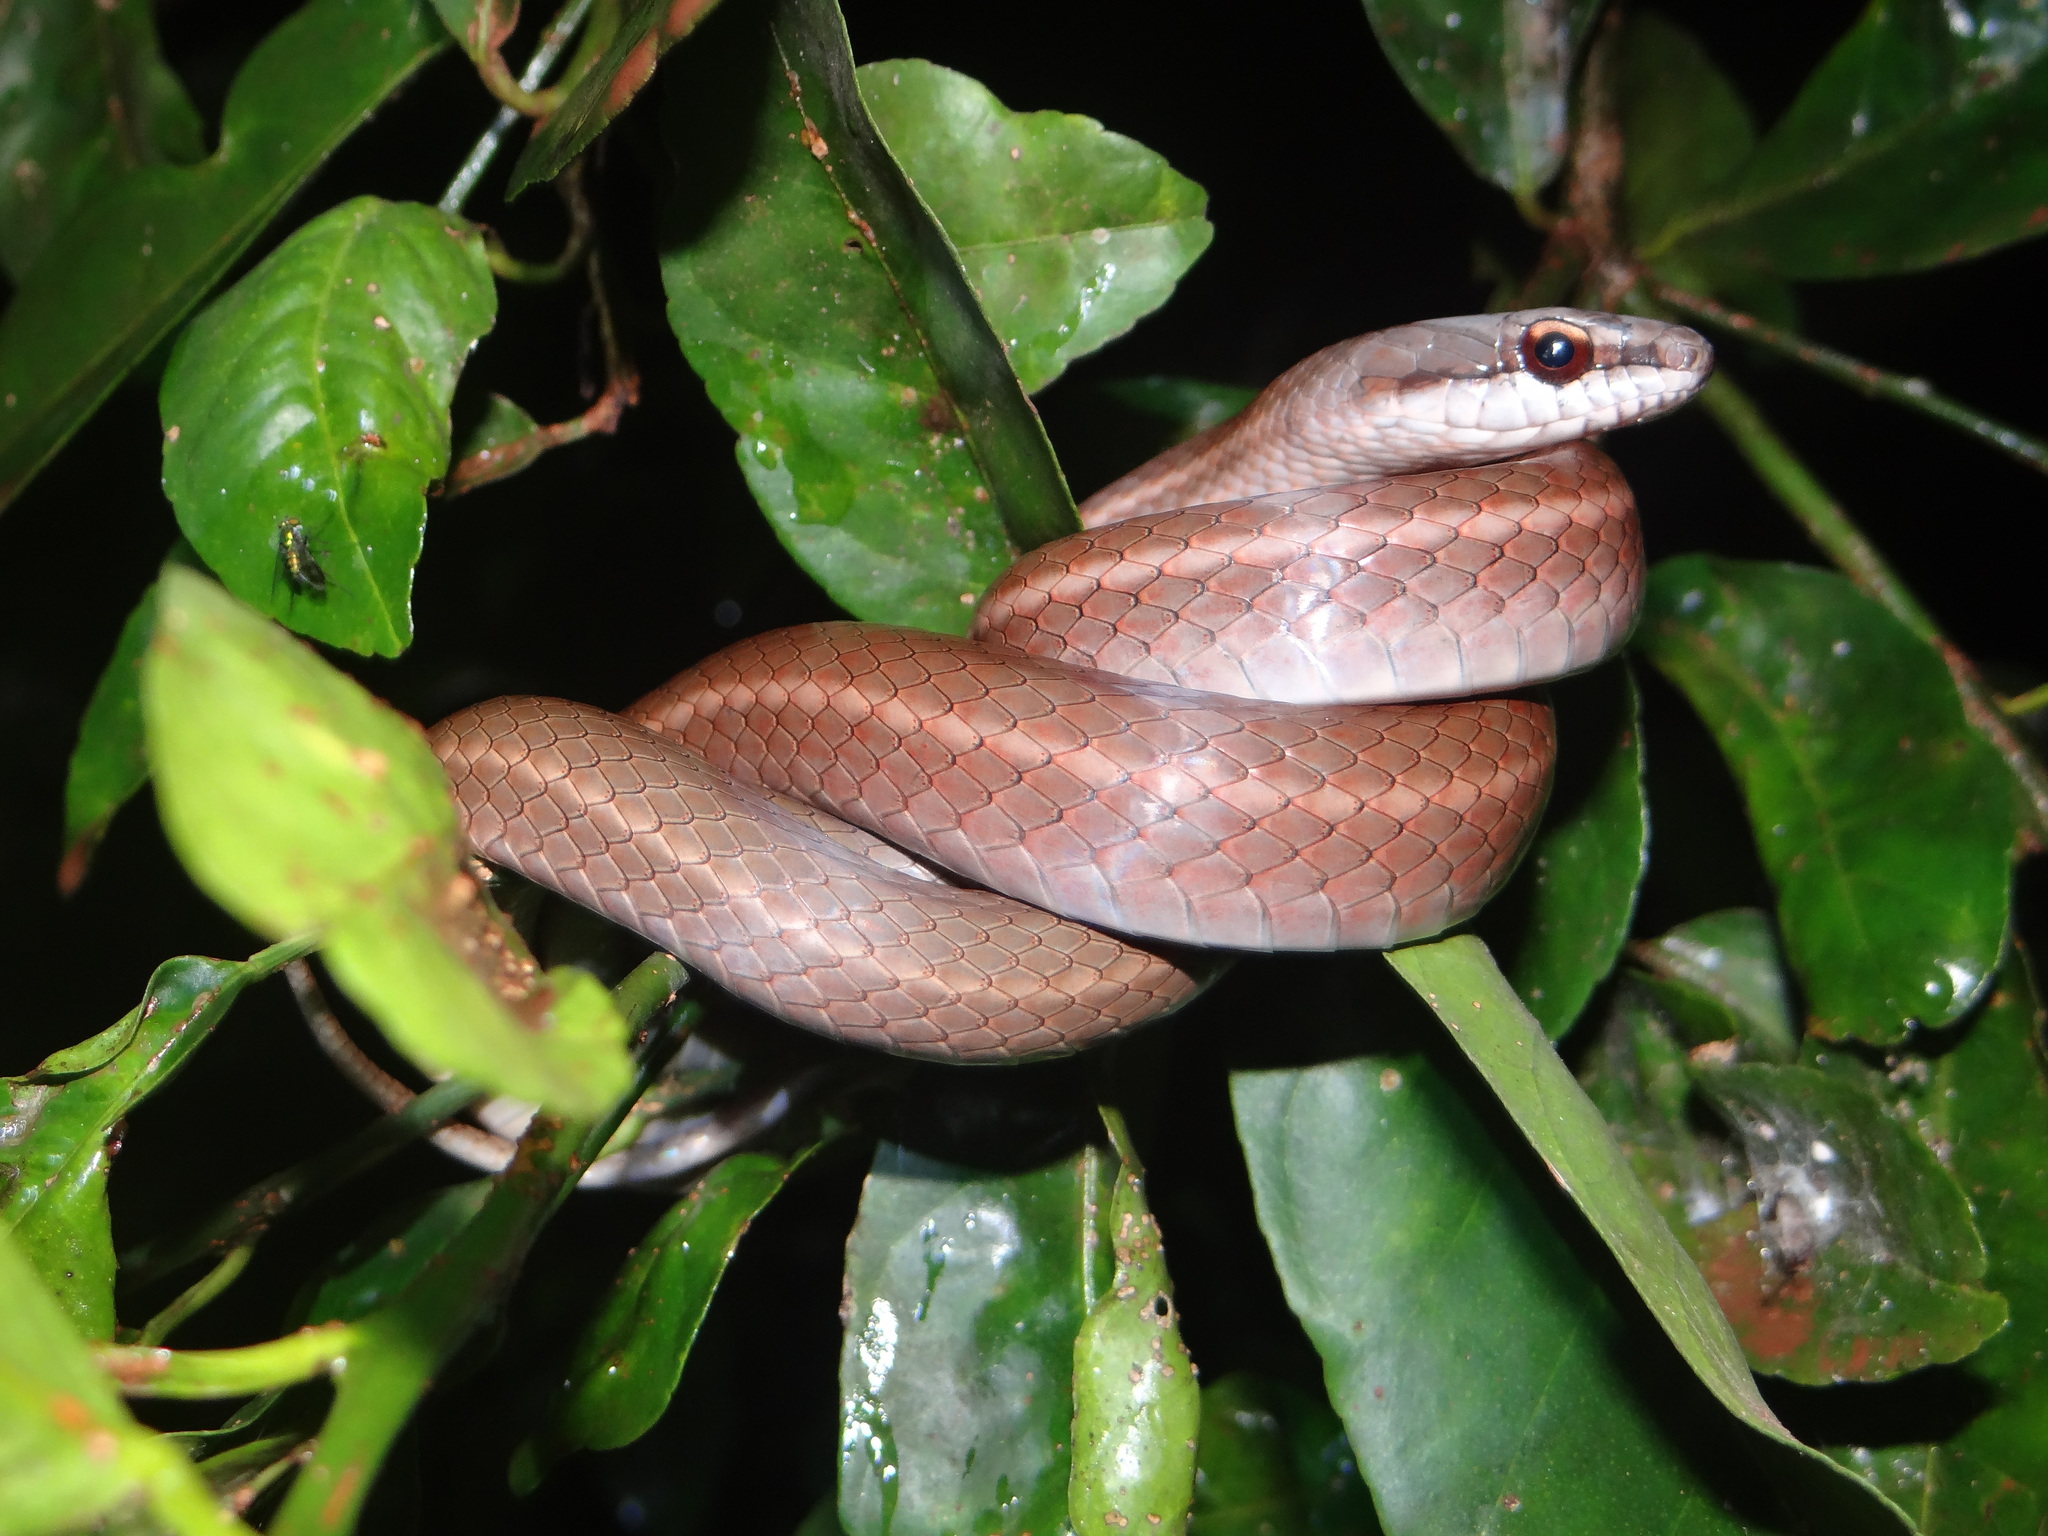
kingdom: Animalia
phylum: Chordata
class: Squamata
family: Colubridae
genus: Mastigodryas
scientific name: Mastigodryas boddaerti
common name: Boddaert's tropical racer
